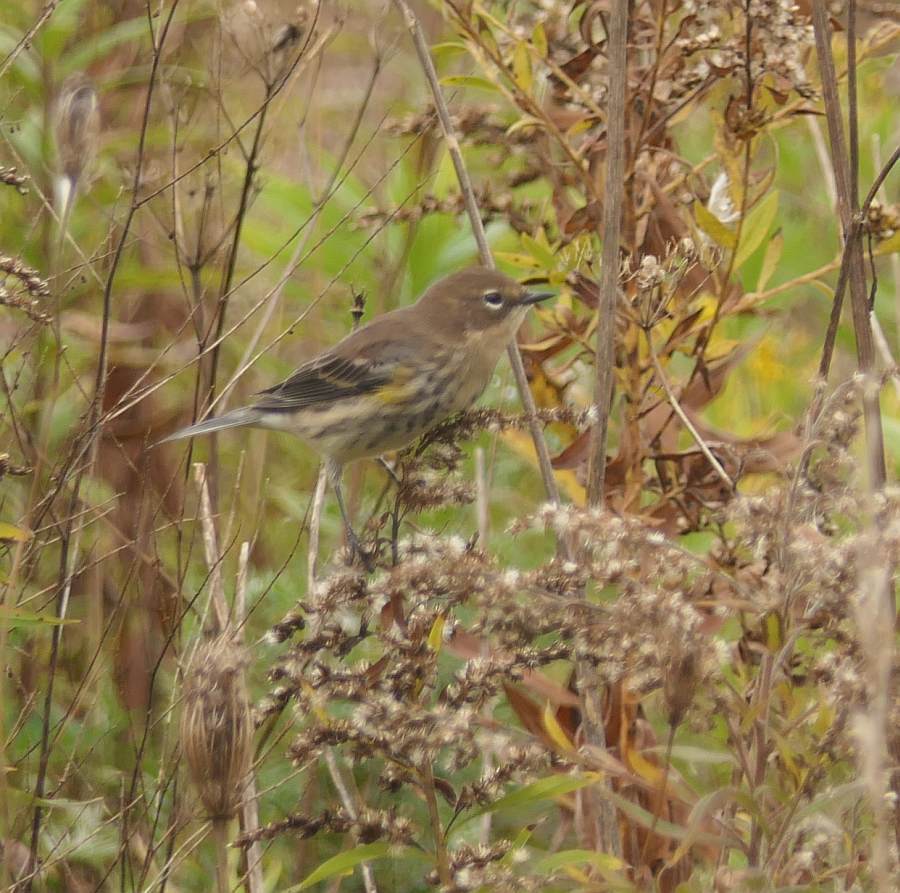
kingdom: Animalia
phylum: Chordata
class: Aves
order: Passeriformes
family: Parulidae
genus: Setophaga
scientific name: Setophaga coronata
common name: Myrtle warbler
